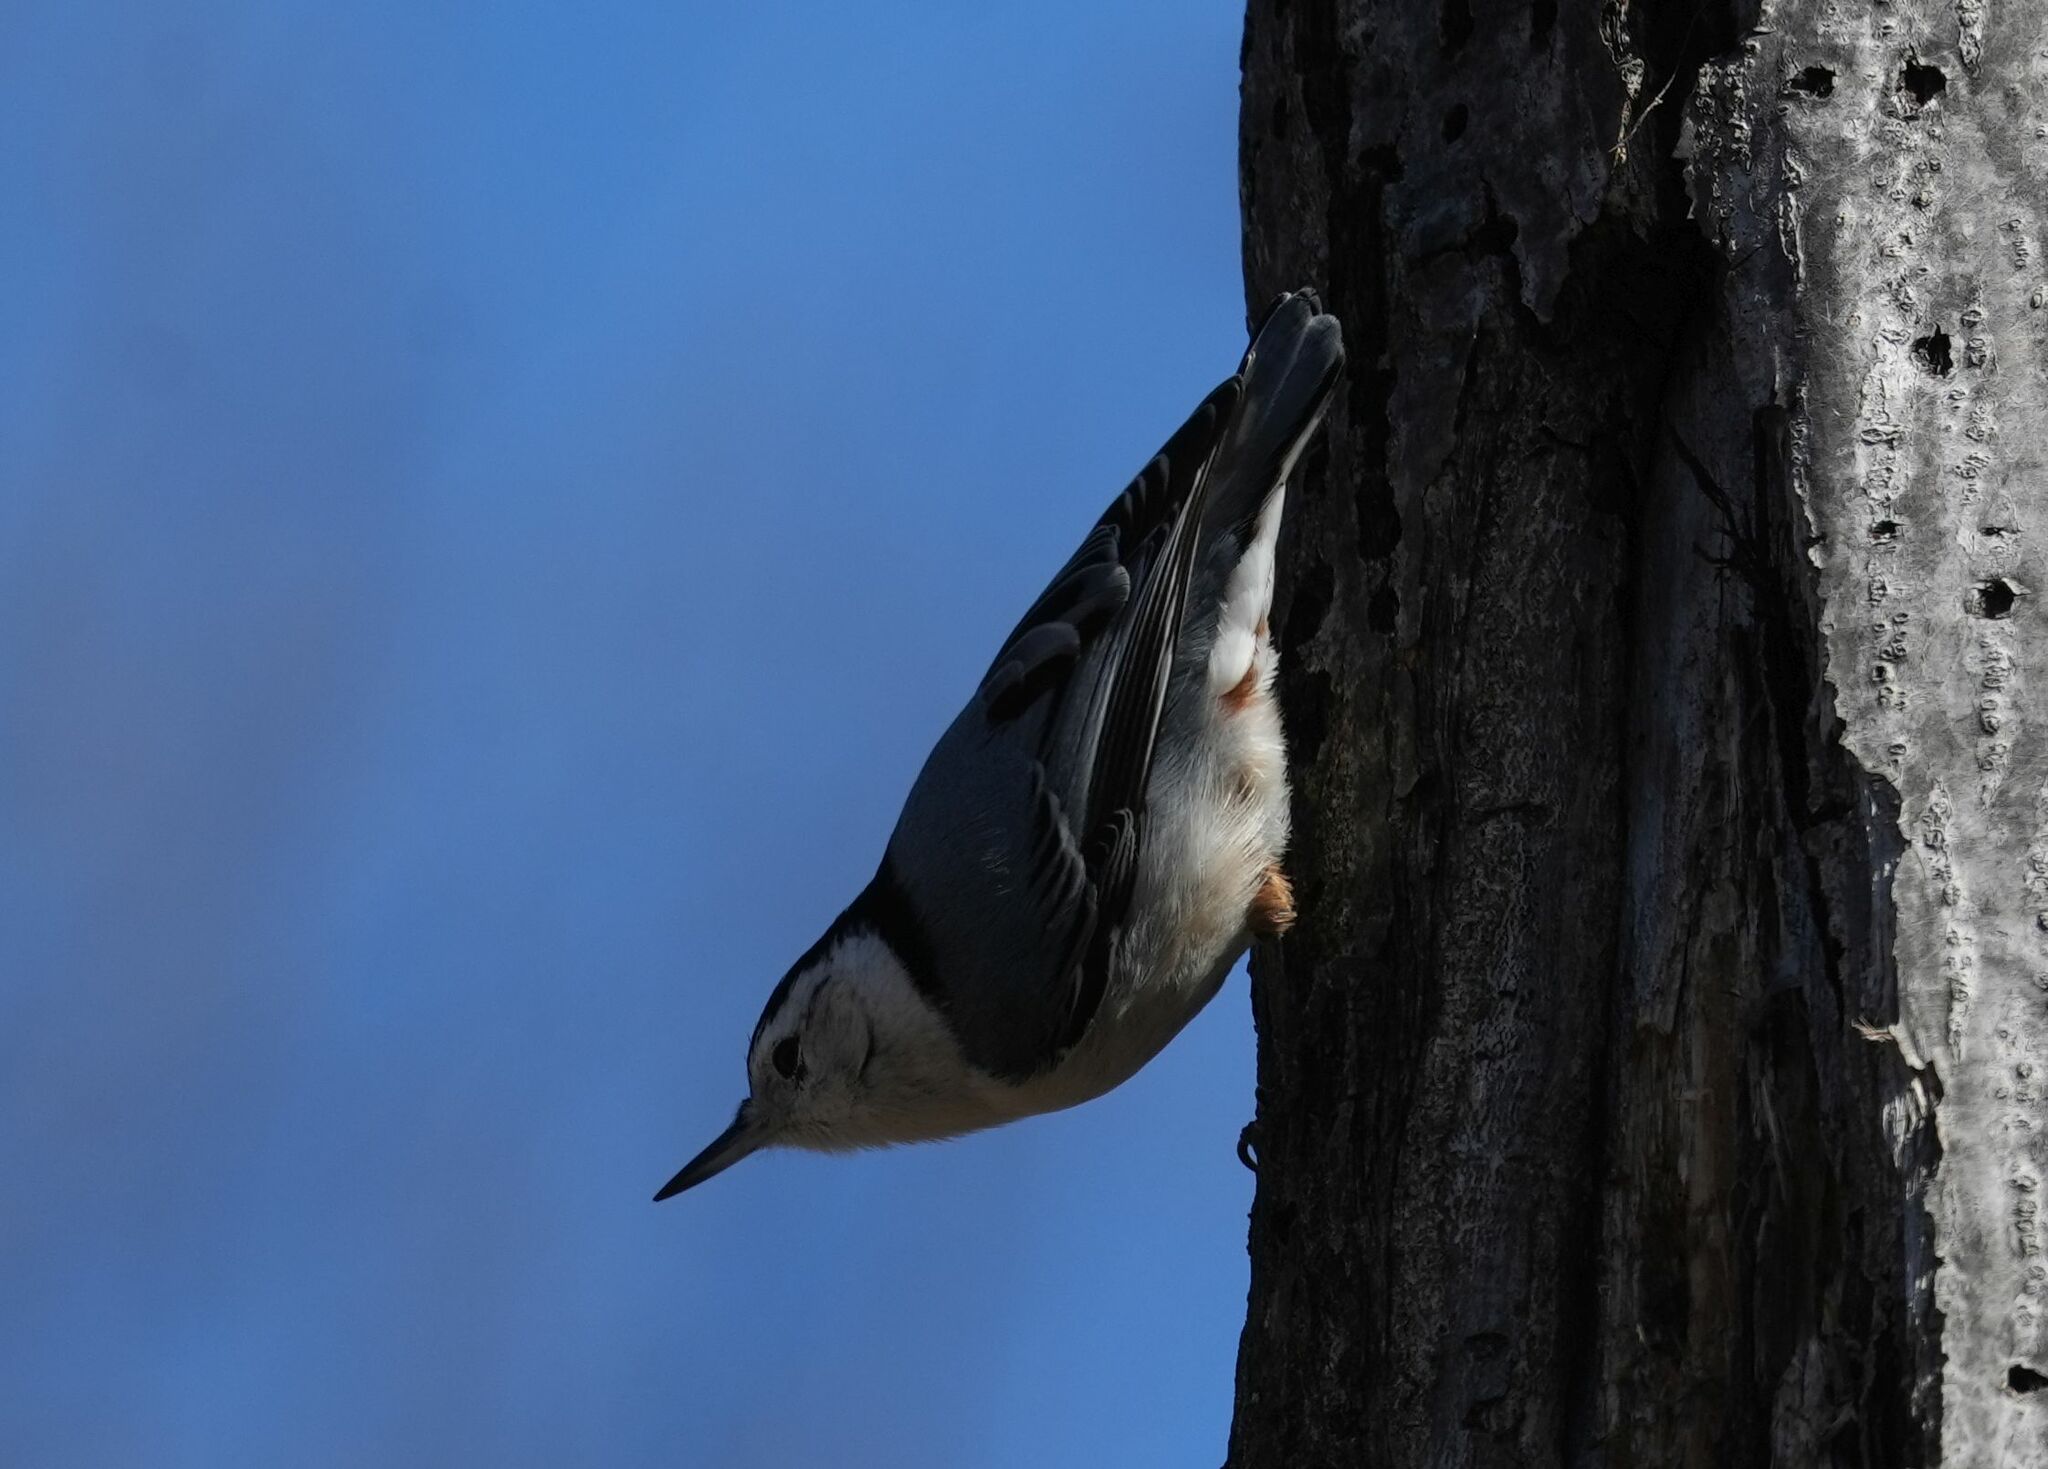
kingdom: Animalia
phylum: Chordata
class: Aves
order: Passeriformes
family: Sittidae
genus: Sitta
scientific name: Sitta carolinensis
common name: White-breasted nuthatch
